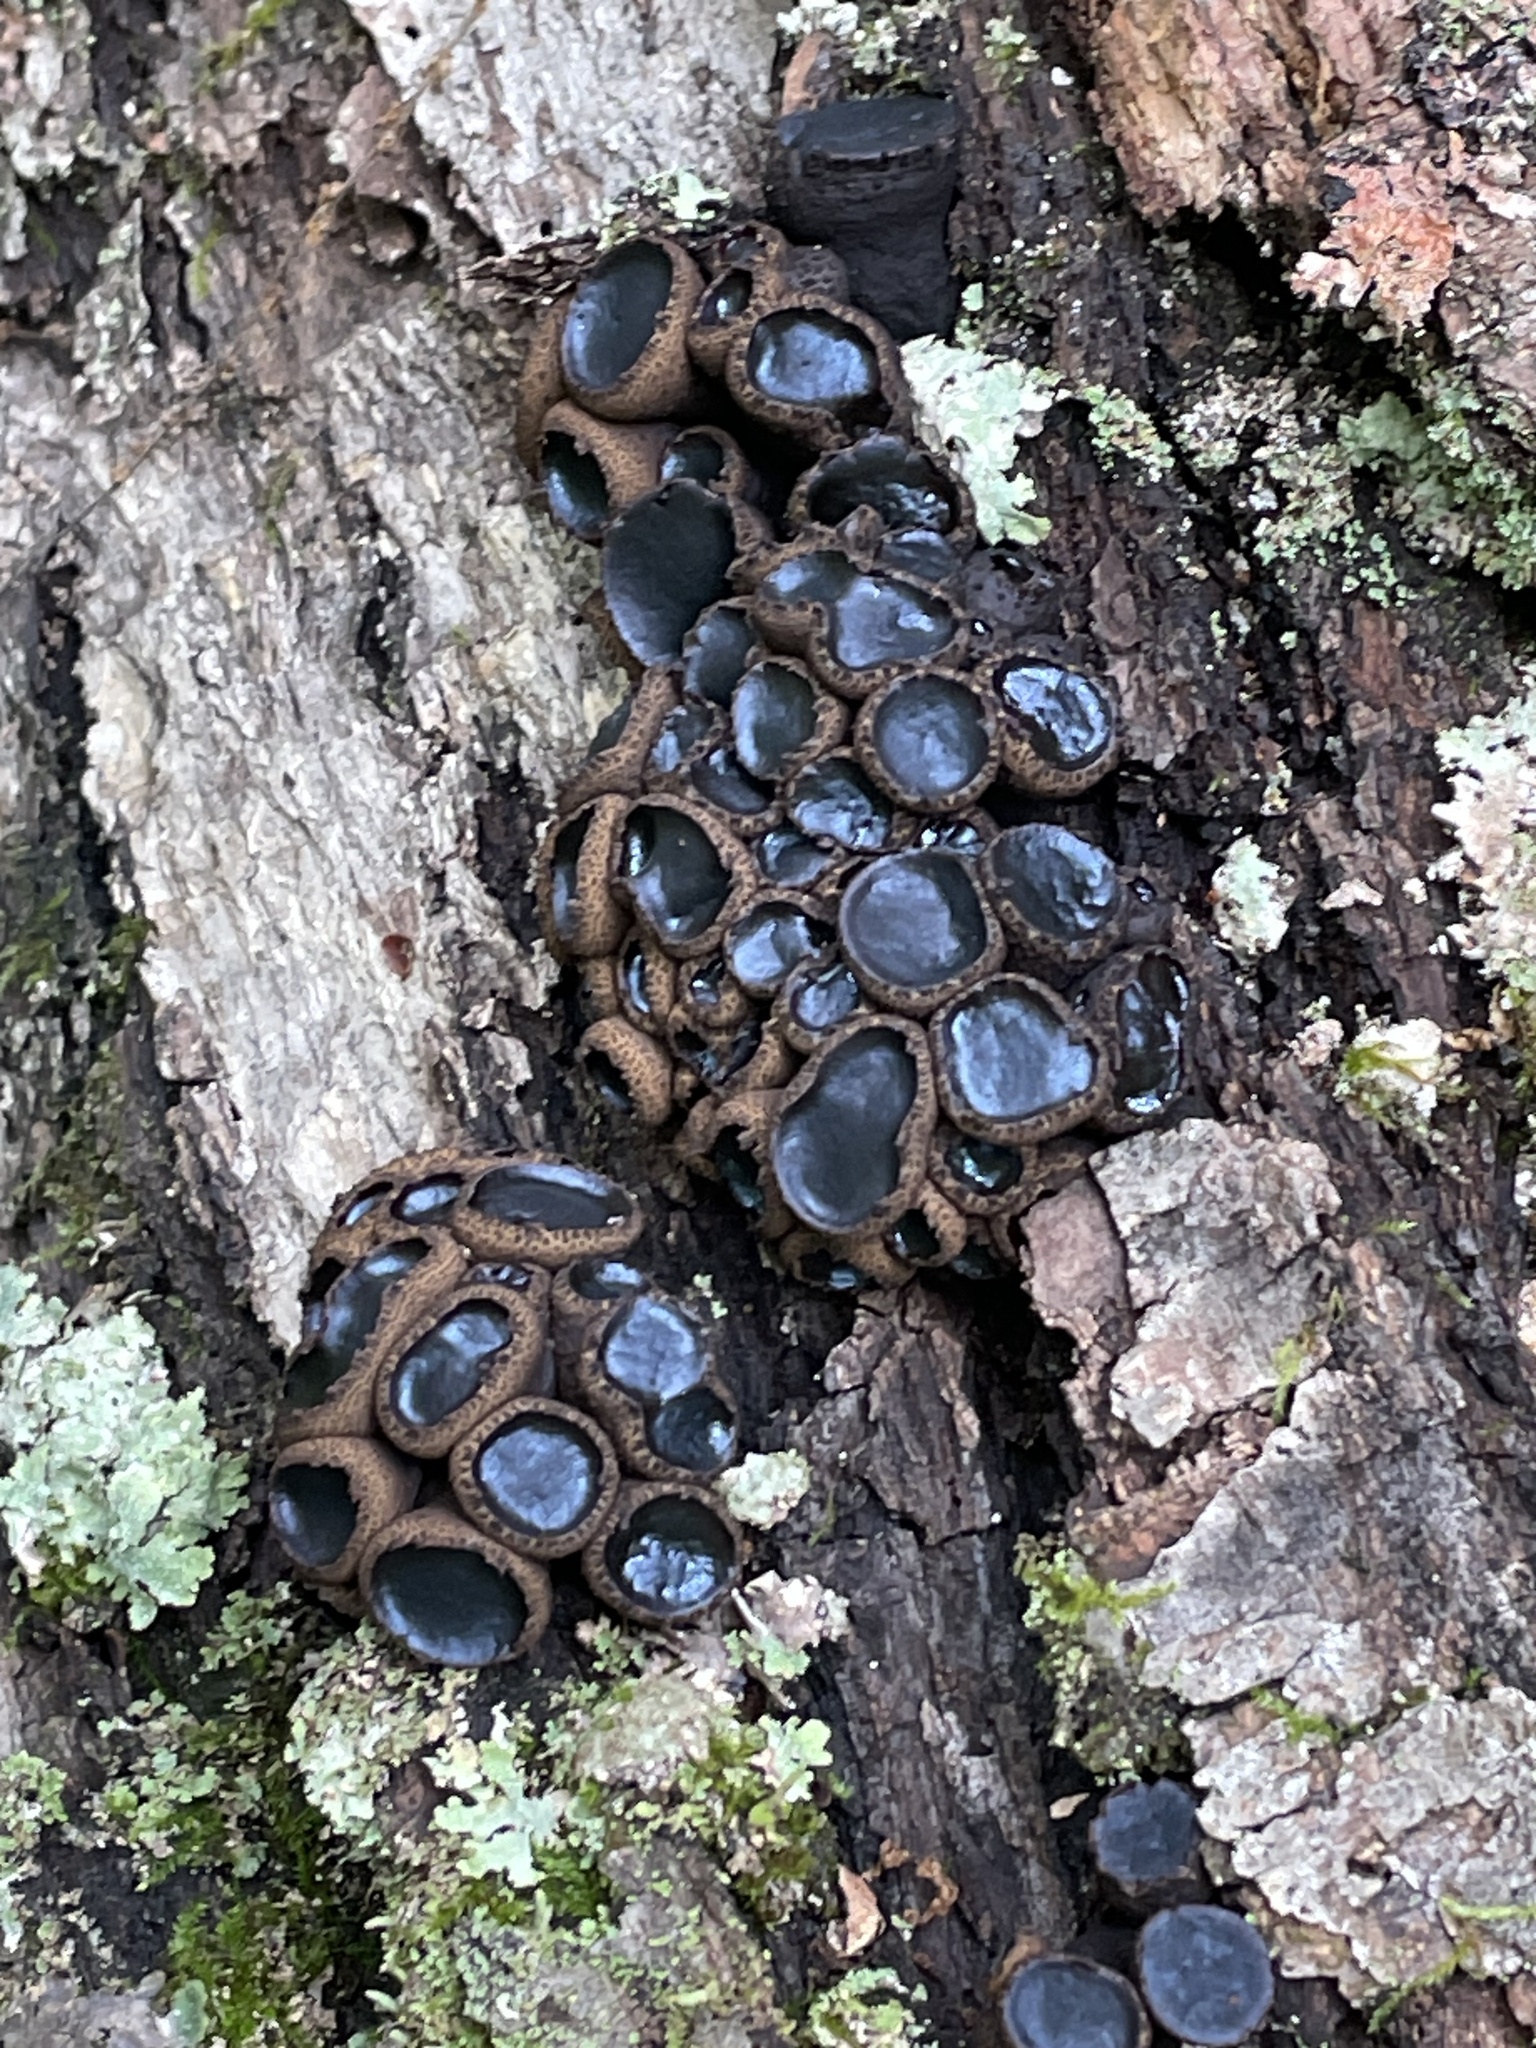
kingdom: Fungi
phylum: Ascomycota
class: Leotiomycetes
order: Phacidiales
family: Phacidiaceae
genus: Bulgaria
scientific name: Bulgaria inquinans
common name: Black bulgar
